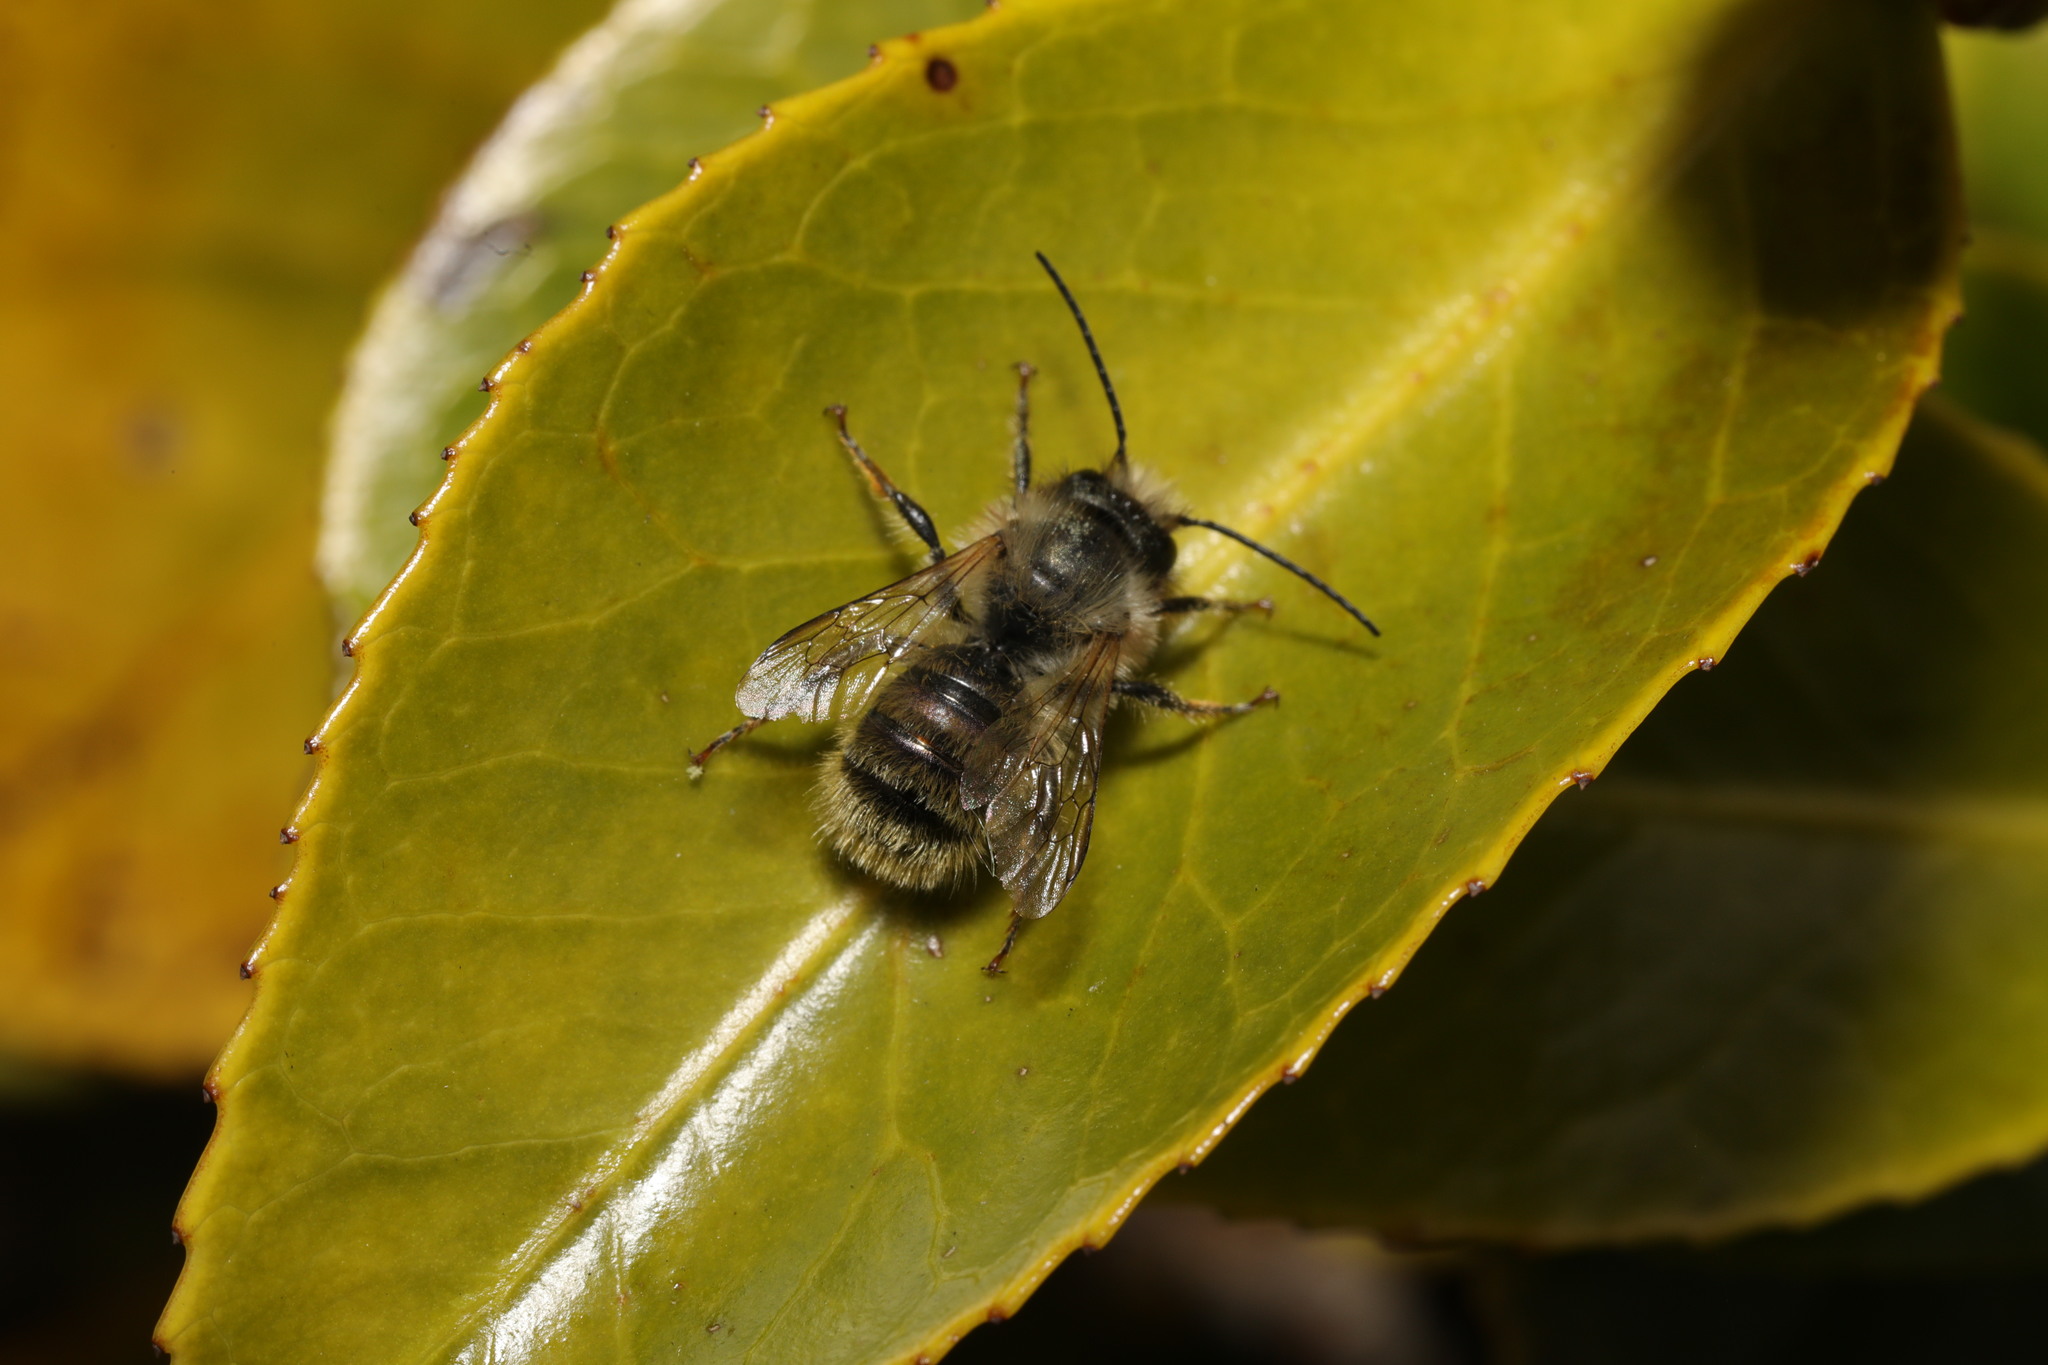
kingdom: Animalia
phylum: Arthropoda
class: Insecta
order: Hymenoptera
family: Megachilidae
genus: Osmia
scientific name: Osmia bicornis
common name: Red mason bee
